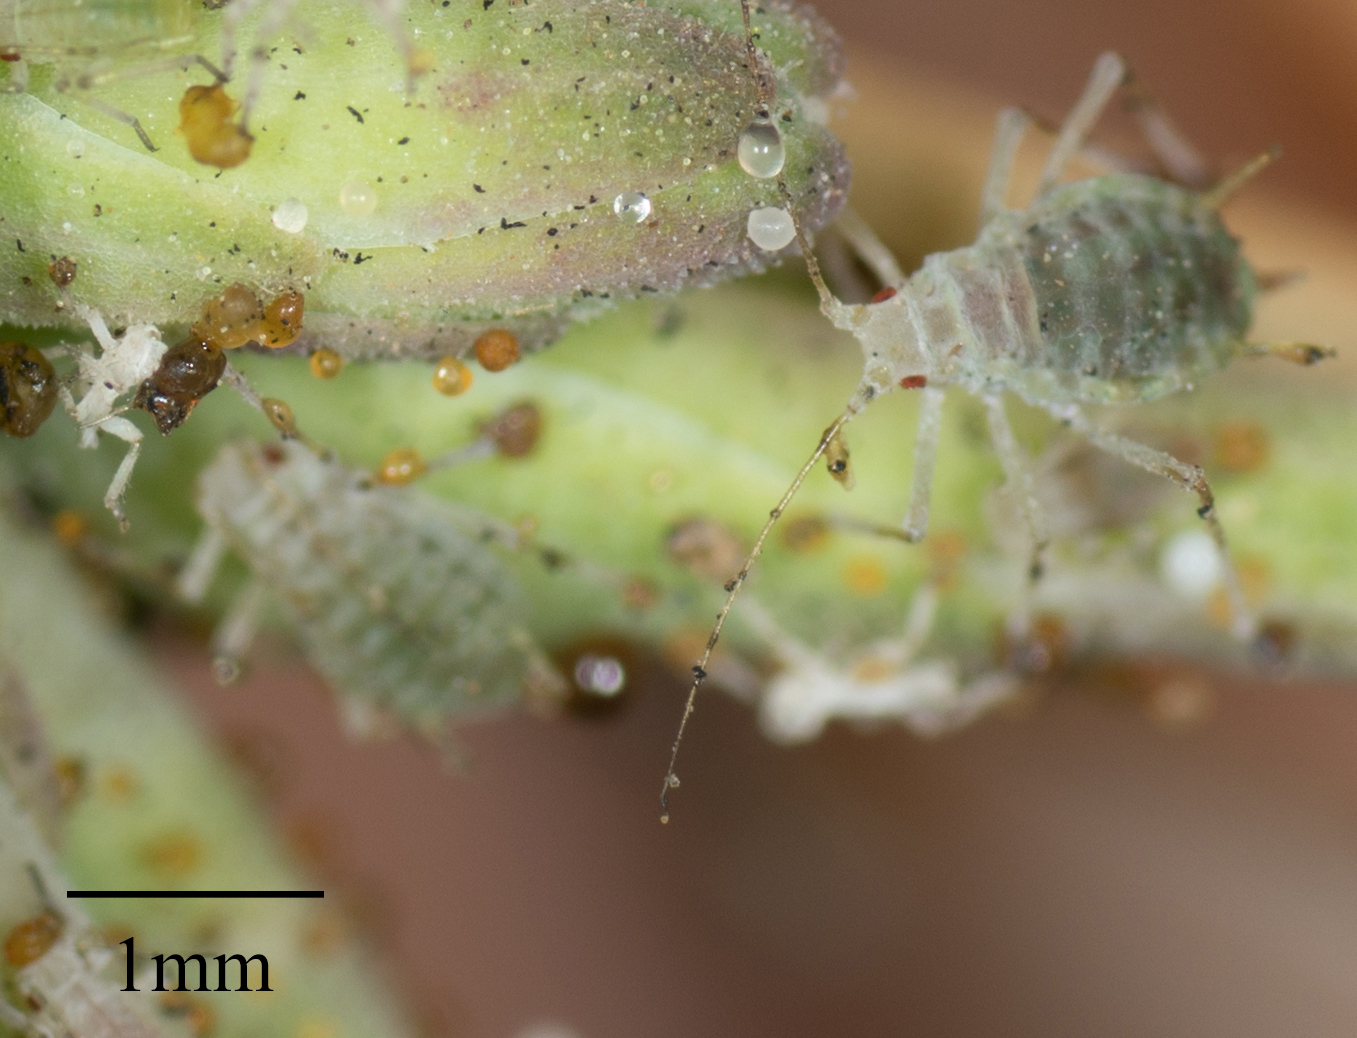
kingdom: Animalia
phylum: Arthropoda
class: Insecta
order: Hemiptera
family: Aphididae
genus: Acyrthosiphon
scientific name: Acyrthosiphon lactucae
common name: Aphid
